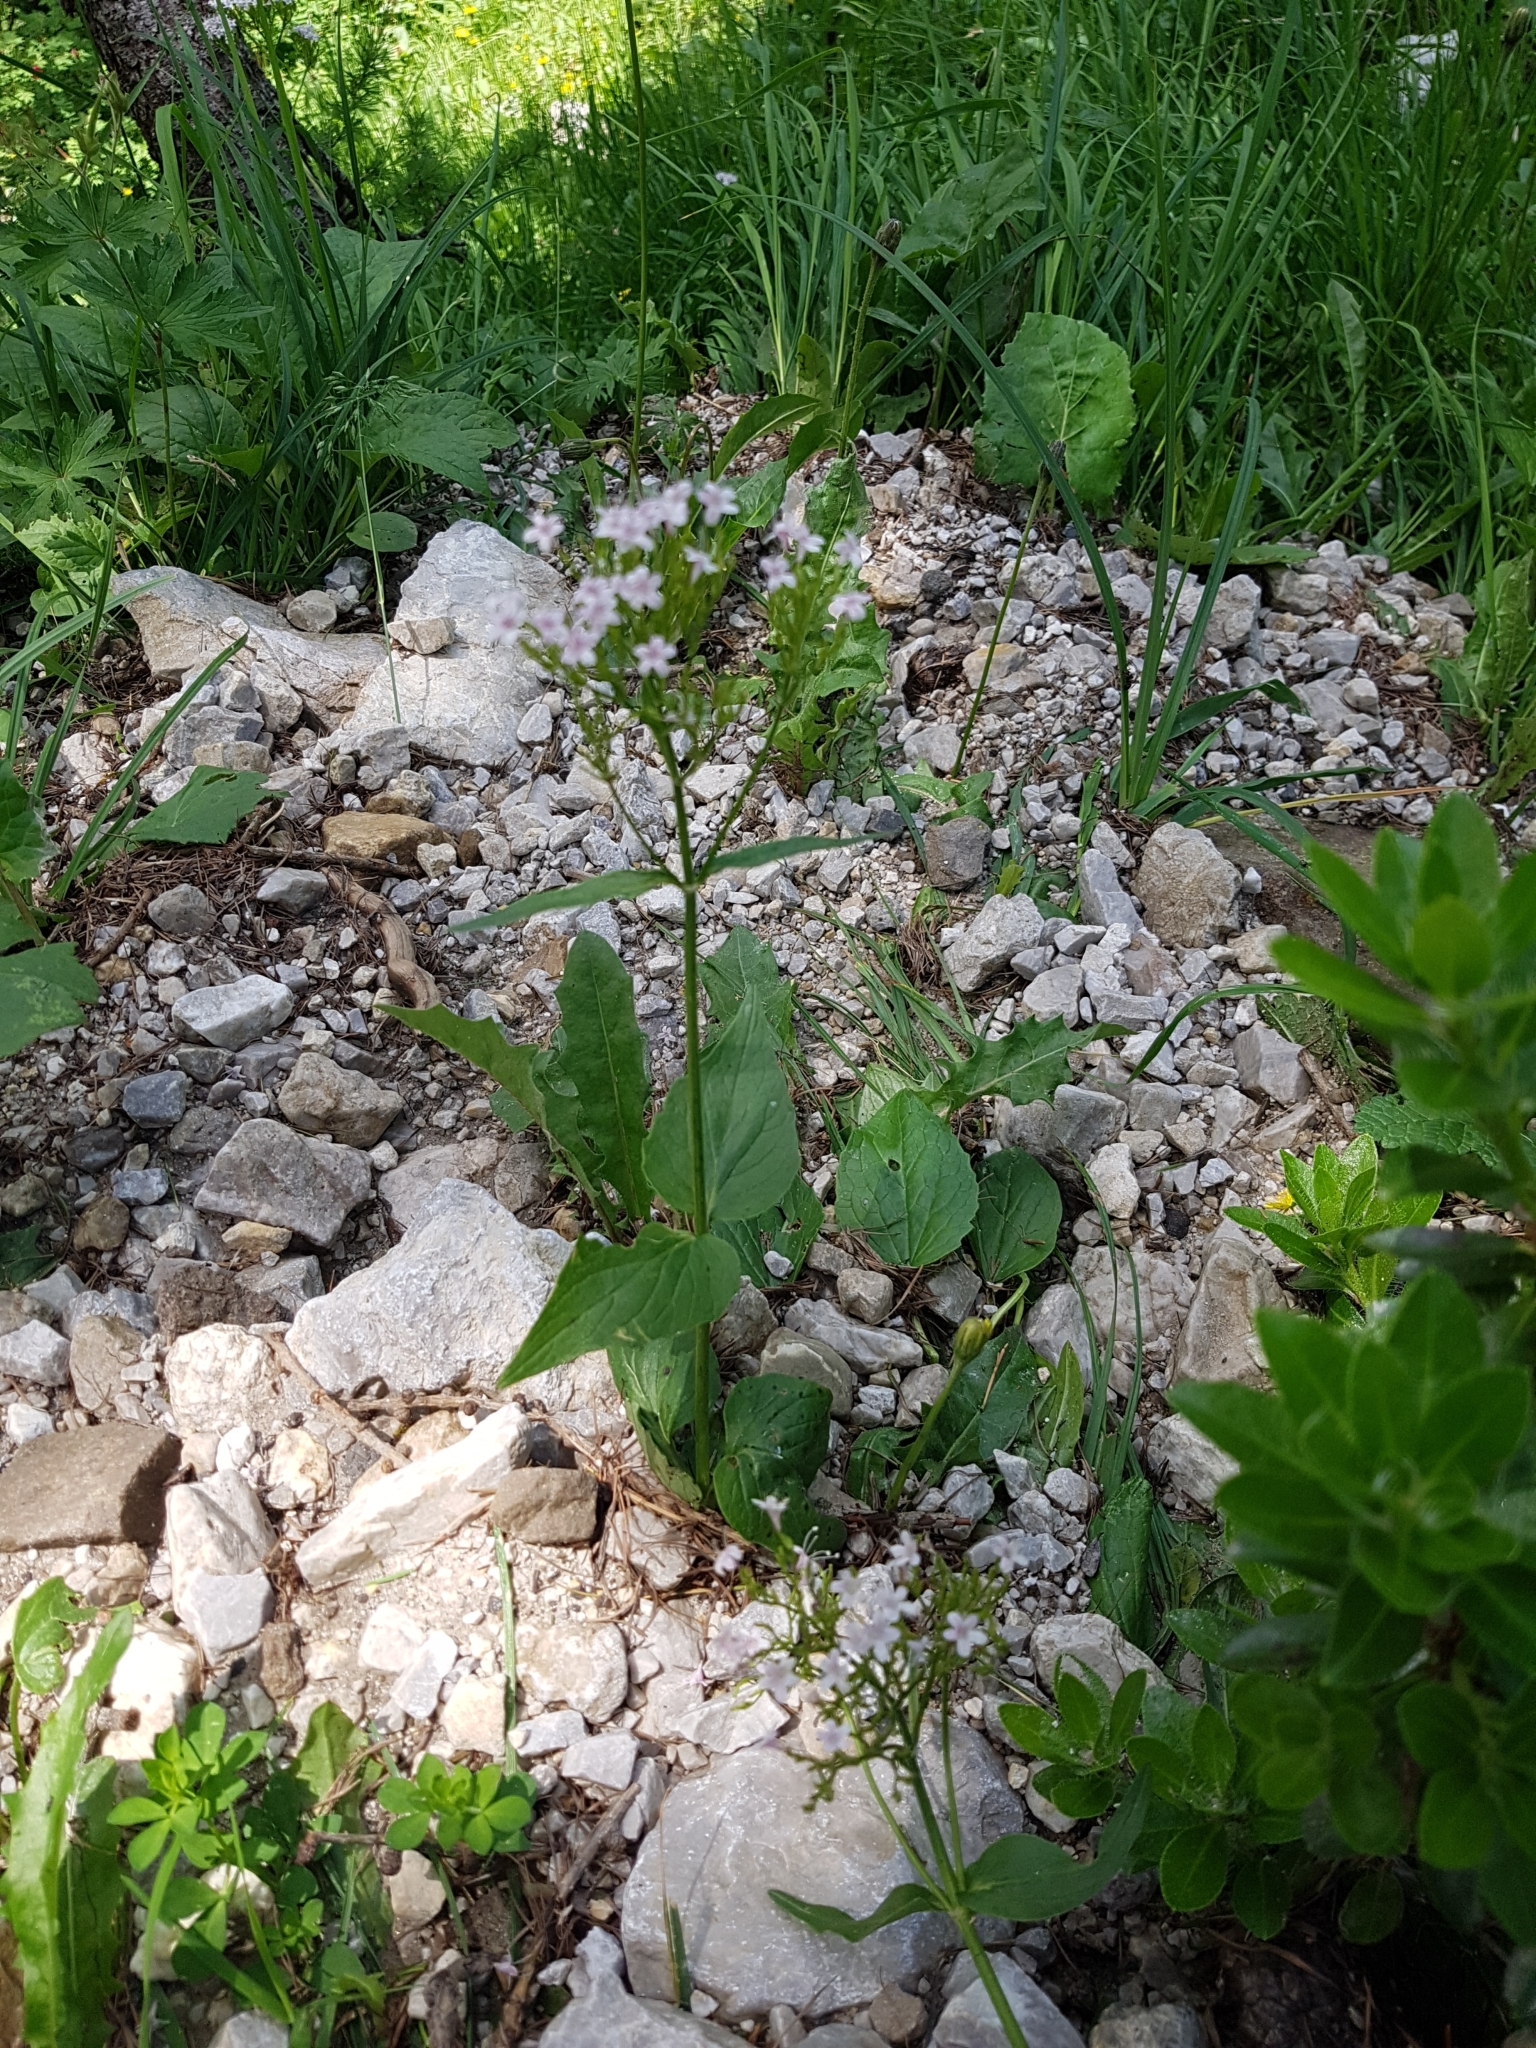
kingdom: Plantae
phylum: Tracheophyta
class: Magnoliopsida
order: Dipsacales
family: Caprifoliaceae
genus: Valeriana
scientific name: Valeriana montana
